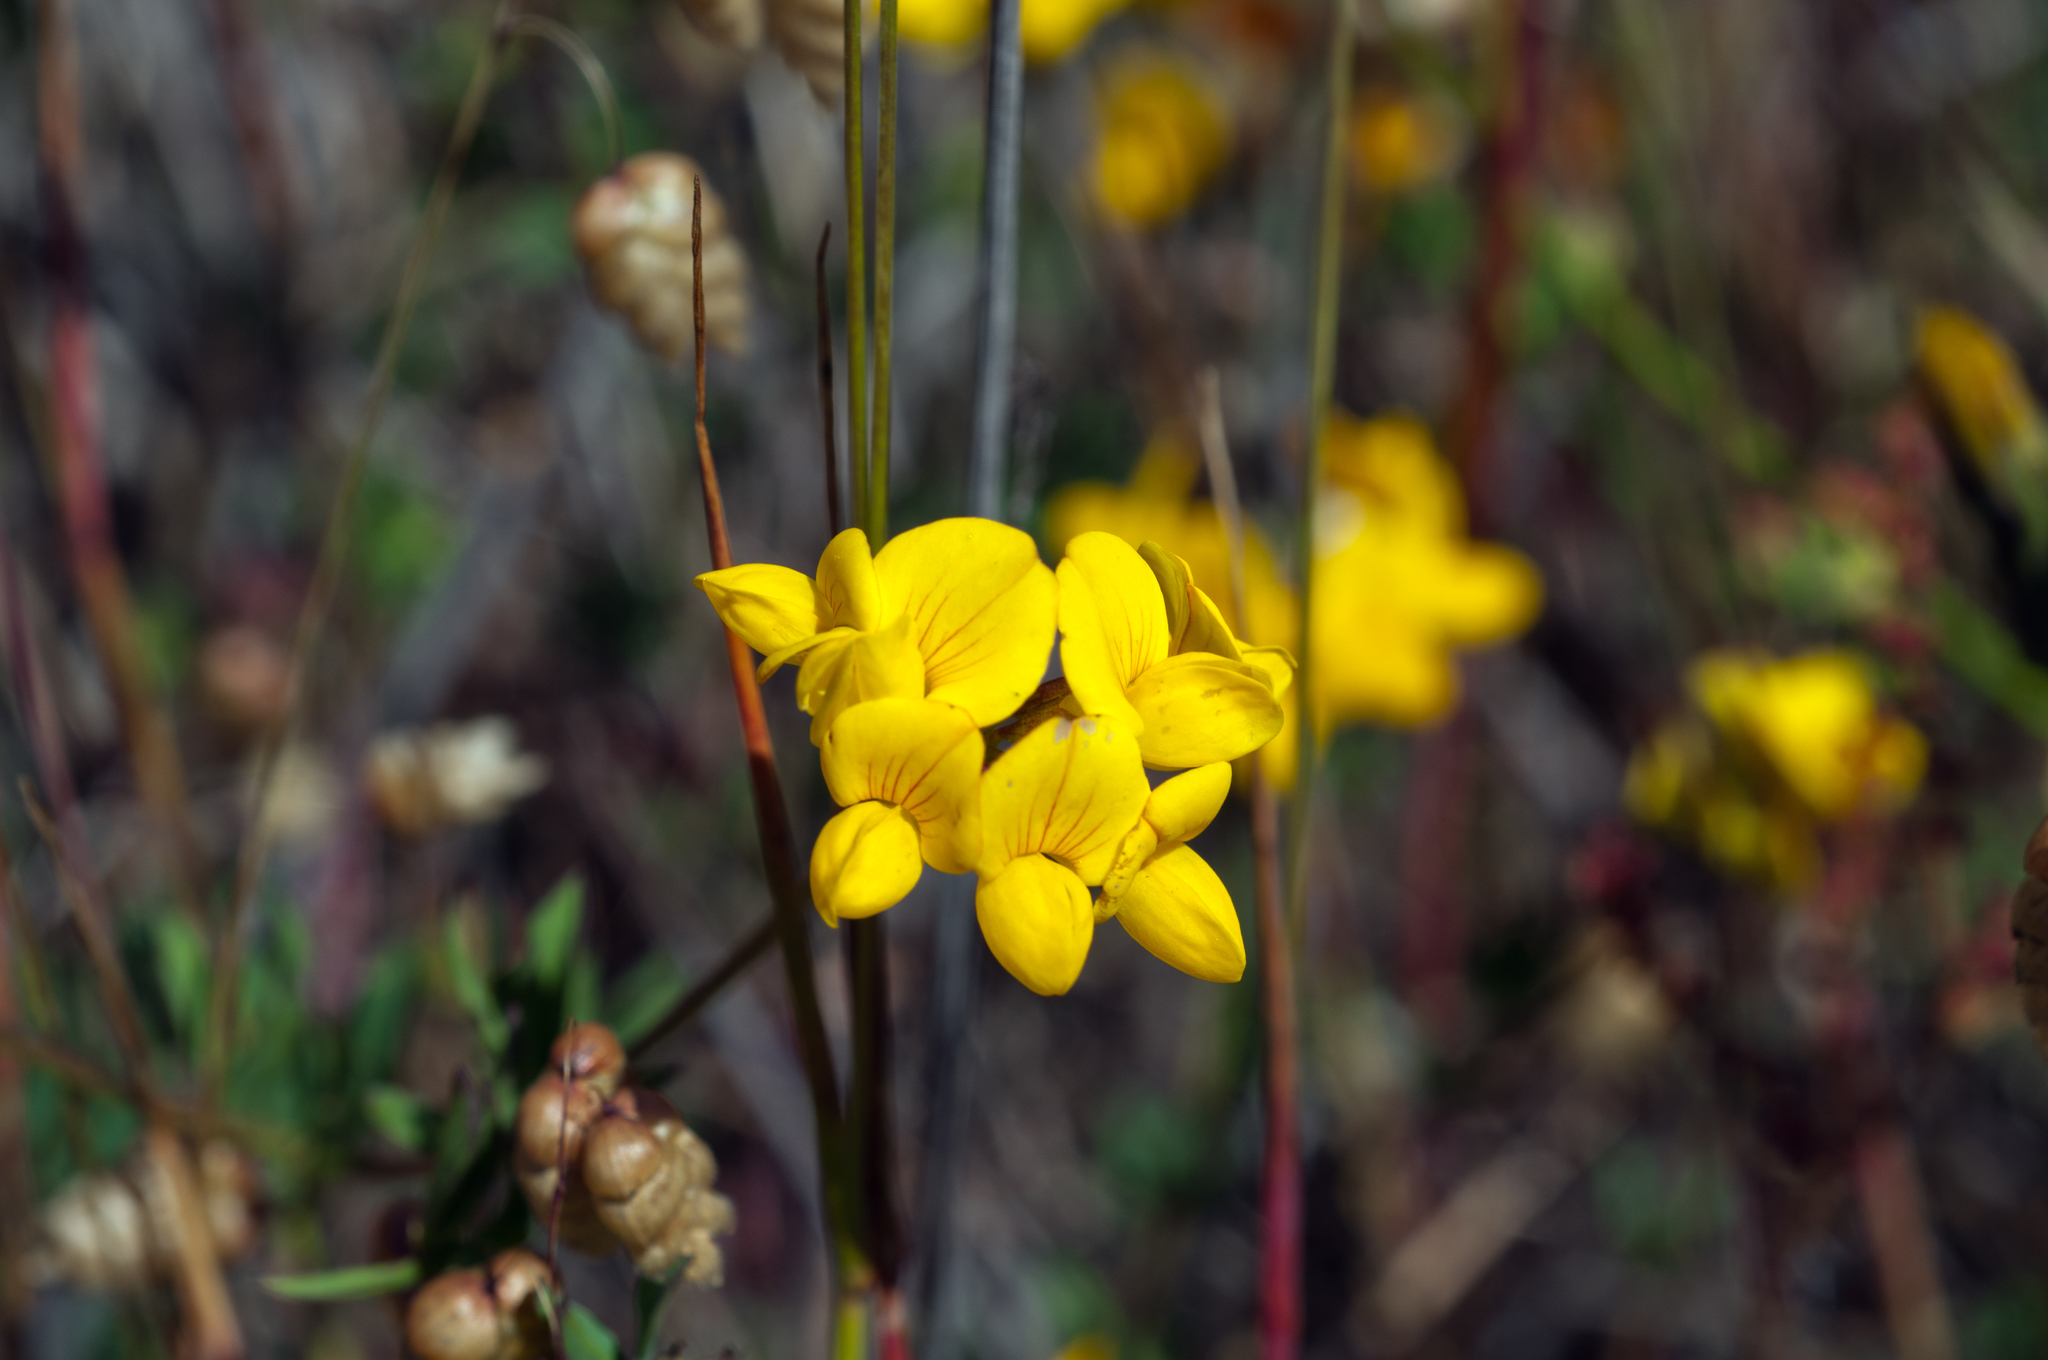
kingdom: Plantae
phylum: Tracheophyta
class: Magnoliopsida
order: Fabales
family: Fabaceae
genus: Lotus
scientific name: Lotus corniculatus
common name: Common bird's-foot-trefoil
